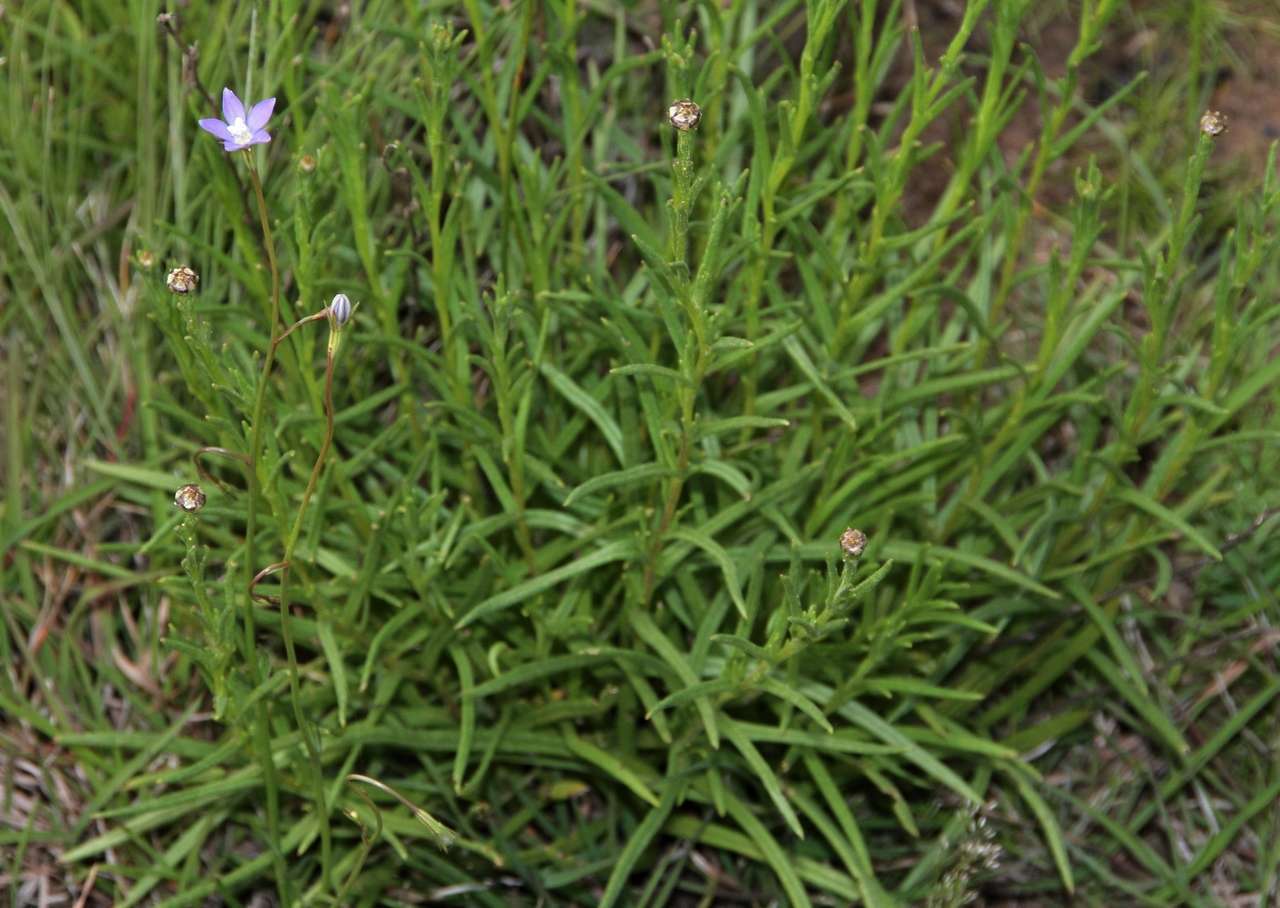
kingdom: Plantae
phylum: Tracheophyta
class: Magnoliopsida
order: Asterales
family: Campanulaceae
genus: Wahlenbergia
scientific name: Wahlenbergia multicaulis
